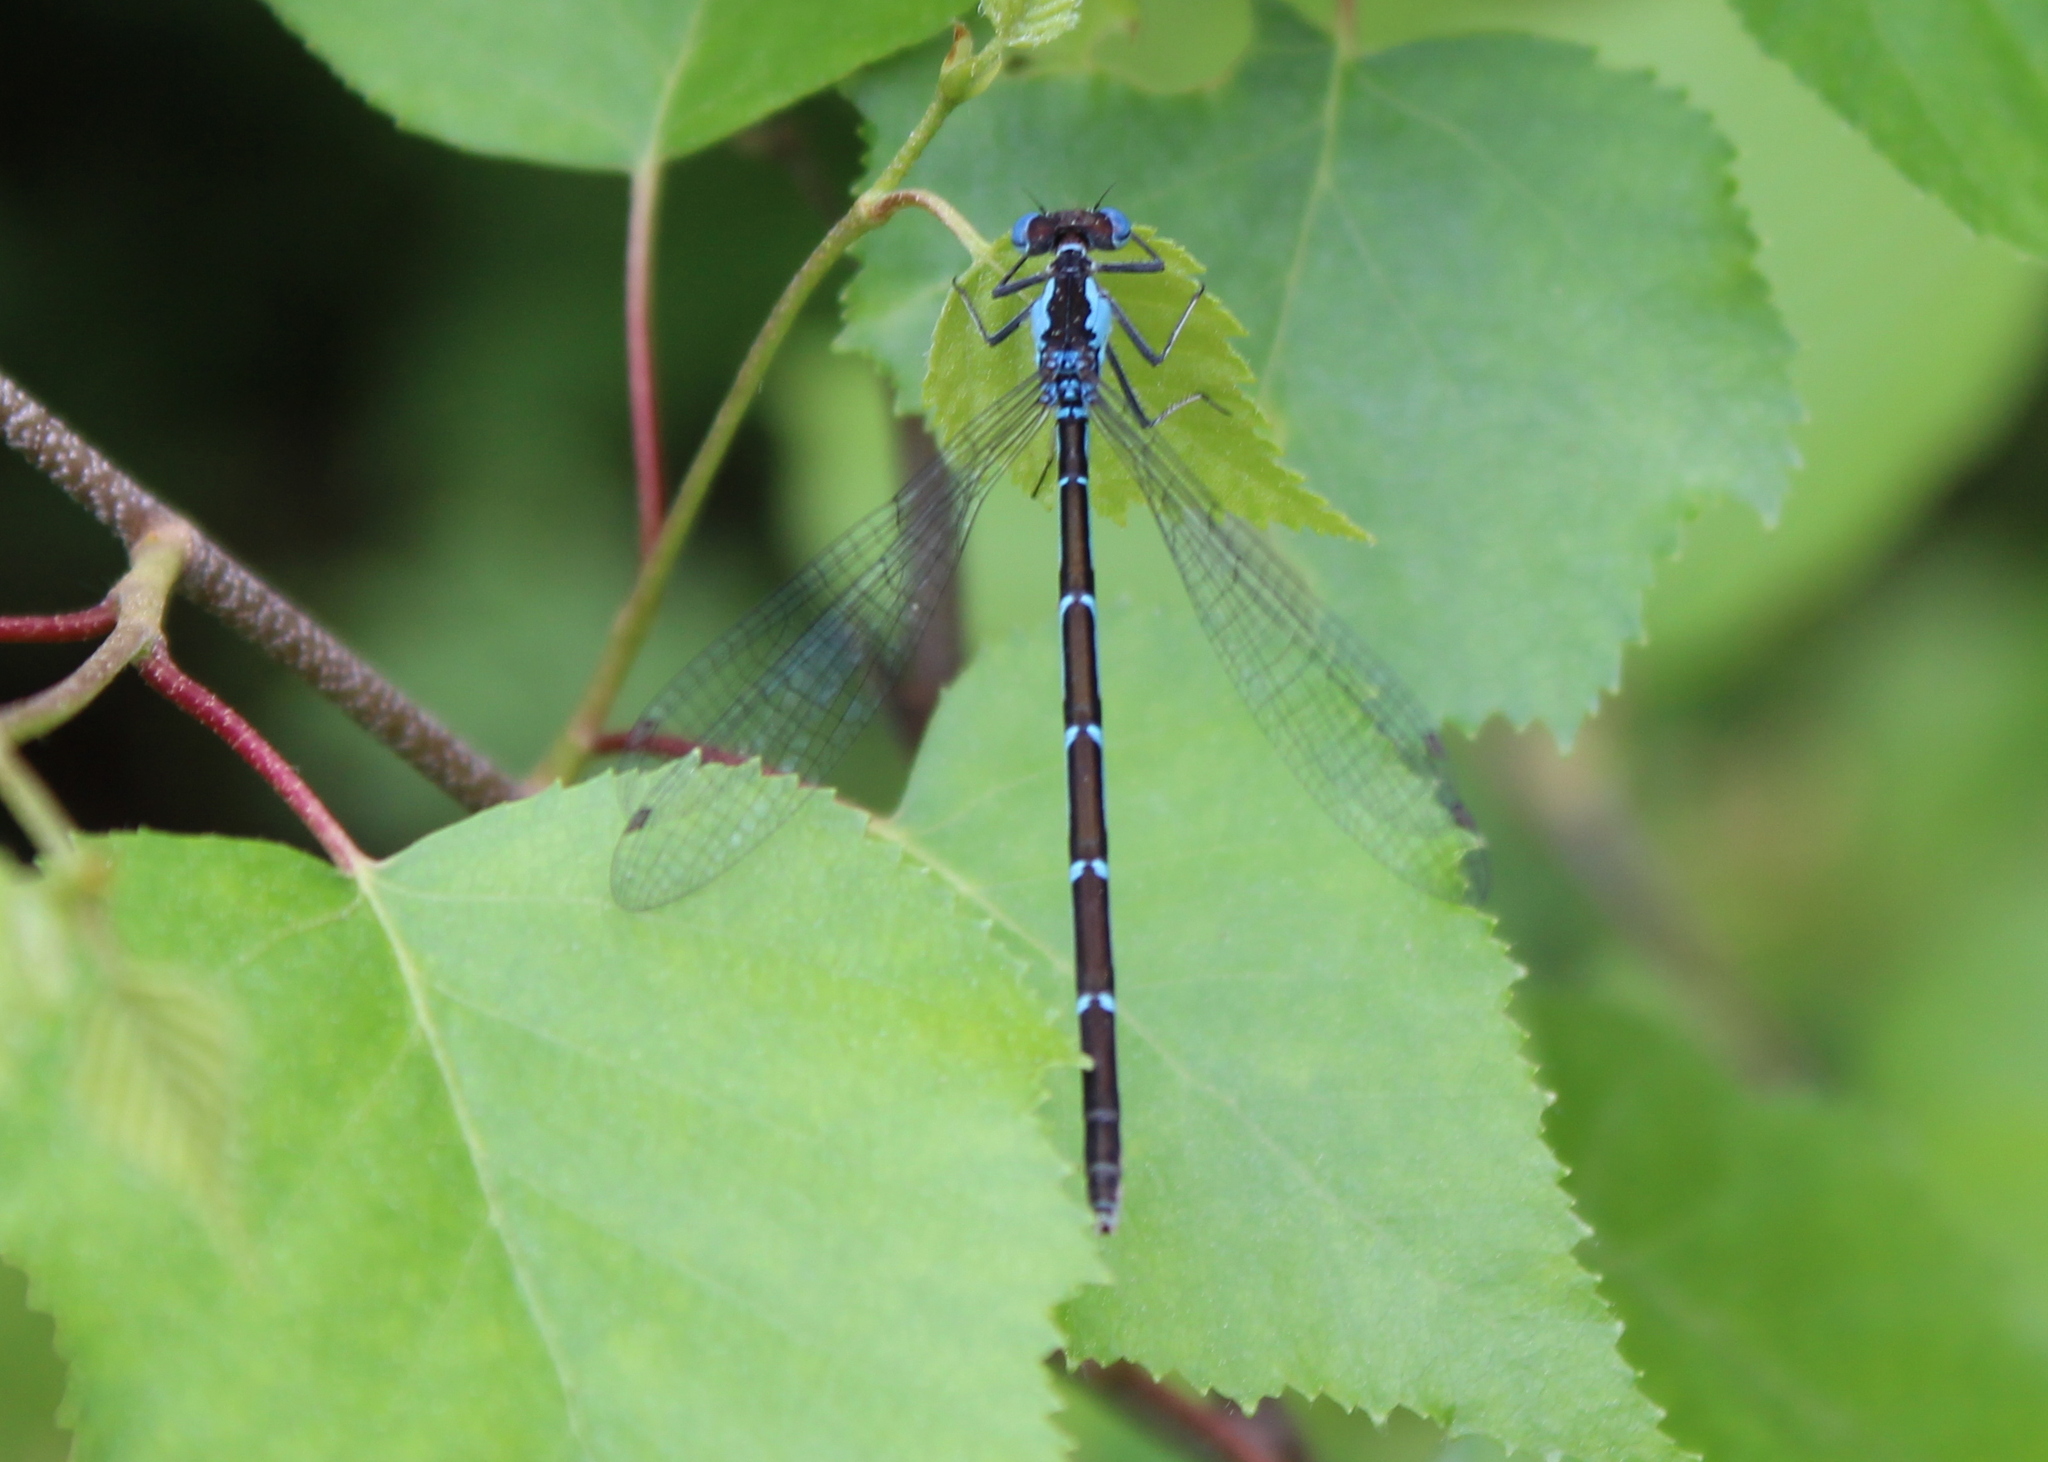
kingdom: Animalia
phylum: Arthropoda
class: Insecta
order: Odonata
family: Coenagrionidae
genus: Chromagrion
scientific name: Chromagrion conditum
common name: Aurora damsel
